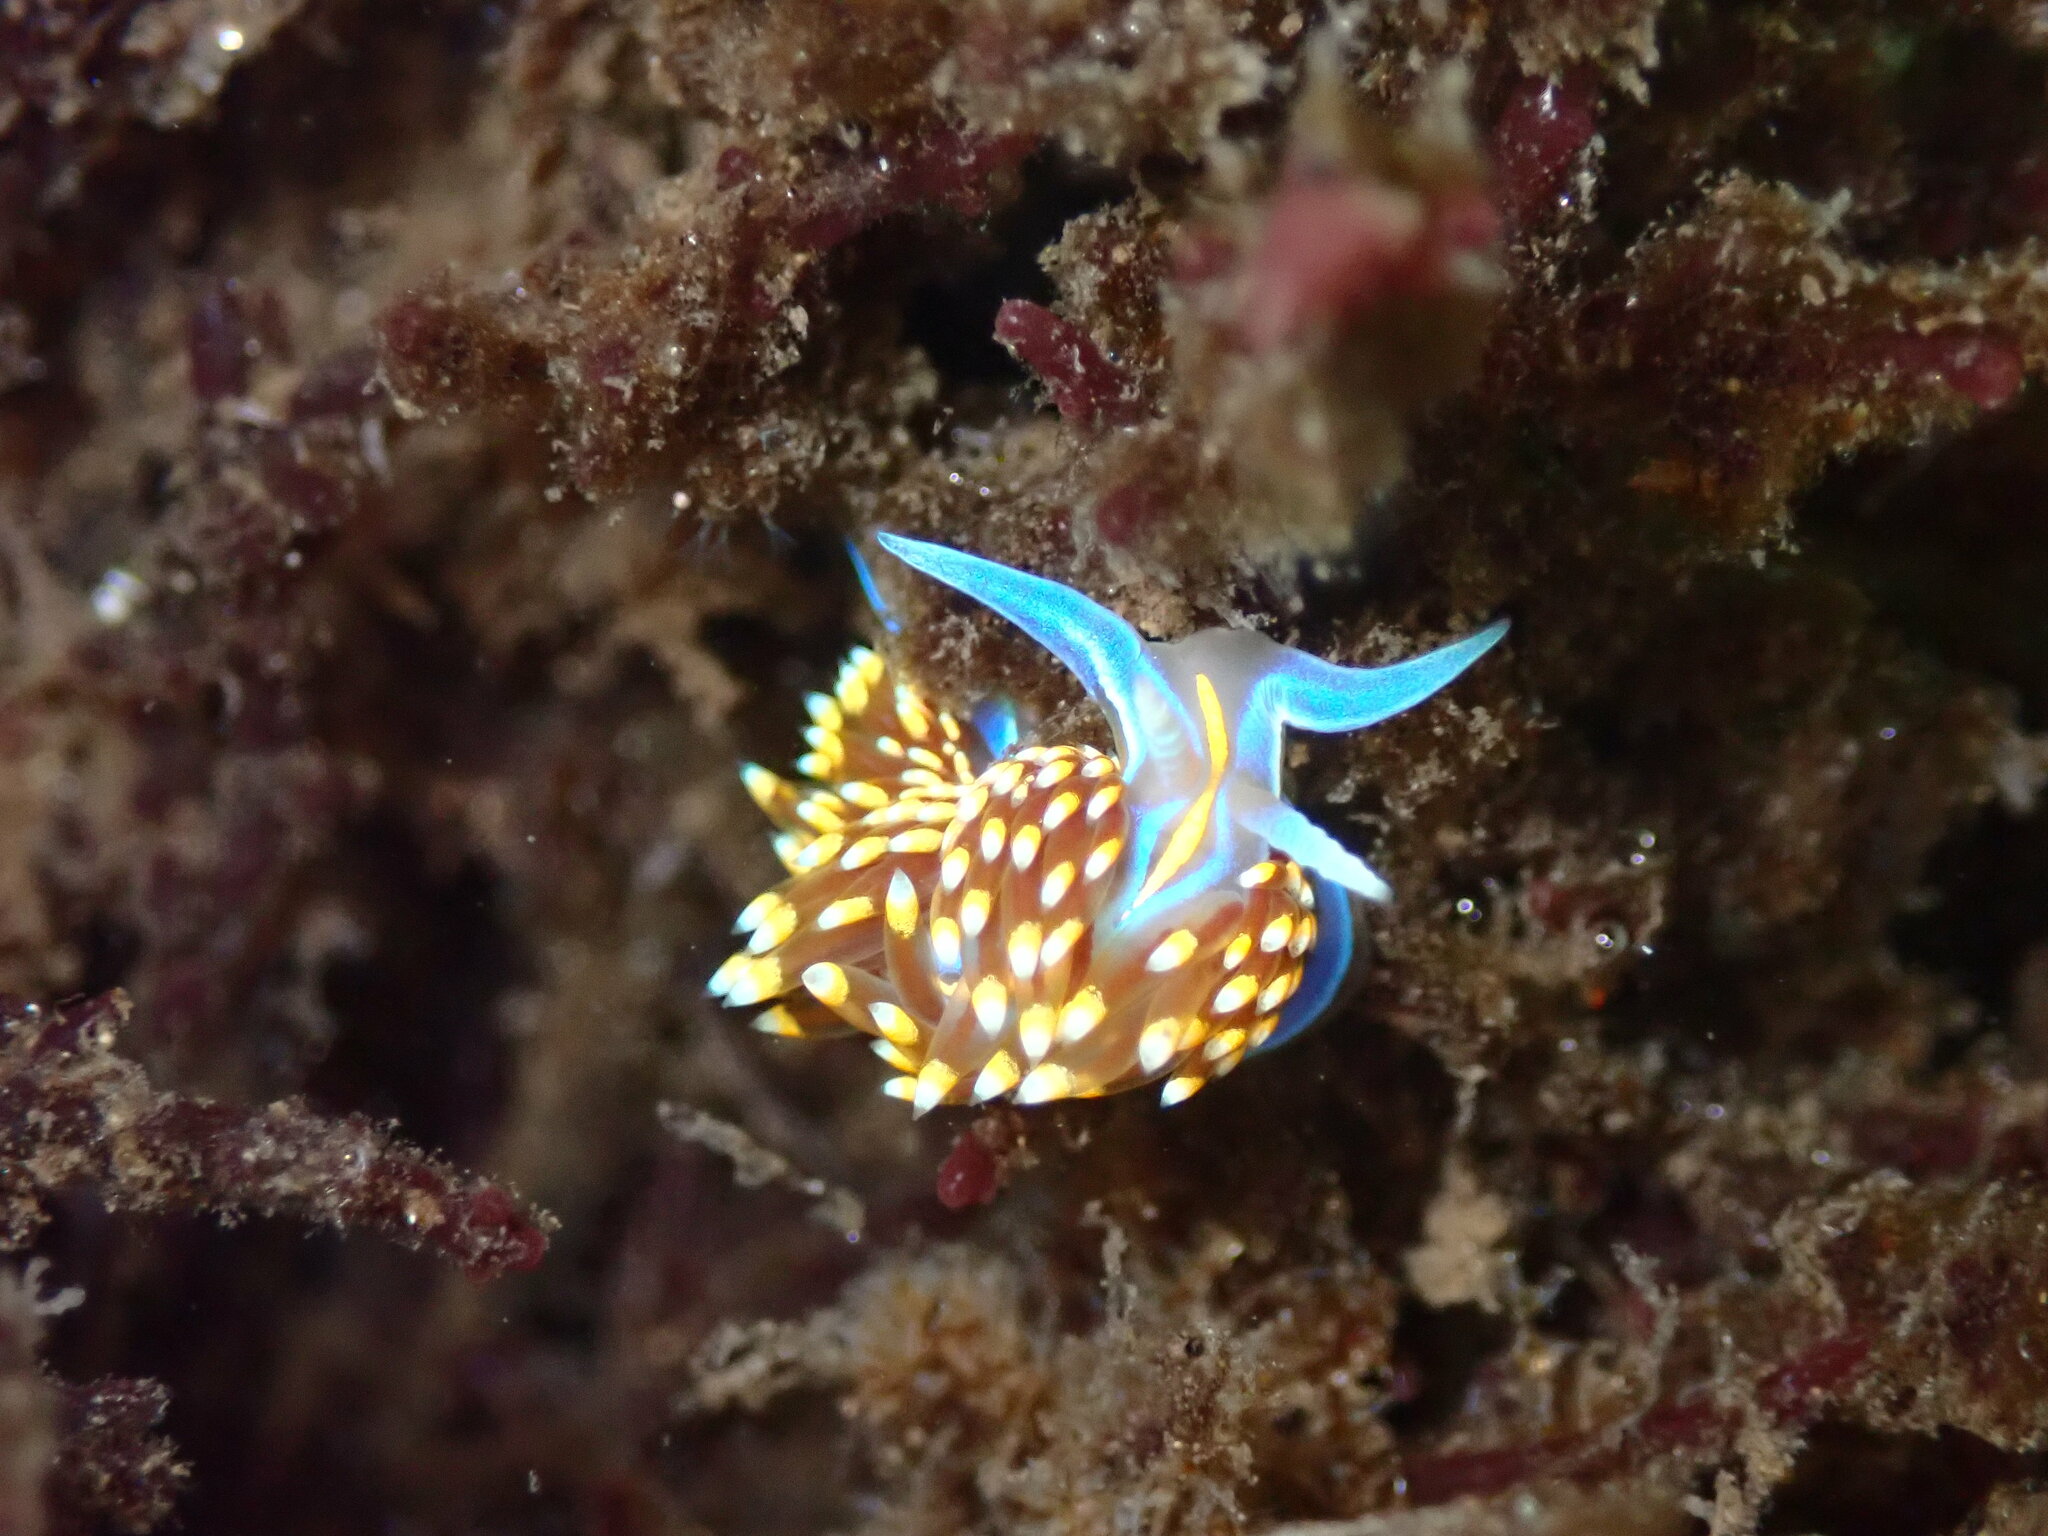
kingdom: Animalia
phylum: Mollusca
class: Gastropoda
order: Nudibranchia
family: Myrrhinidae
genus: Hermissenda
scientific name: Hermissenda opalescens
